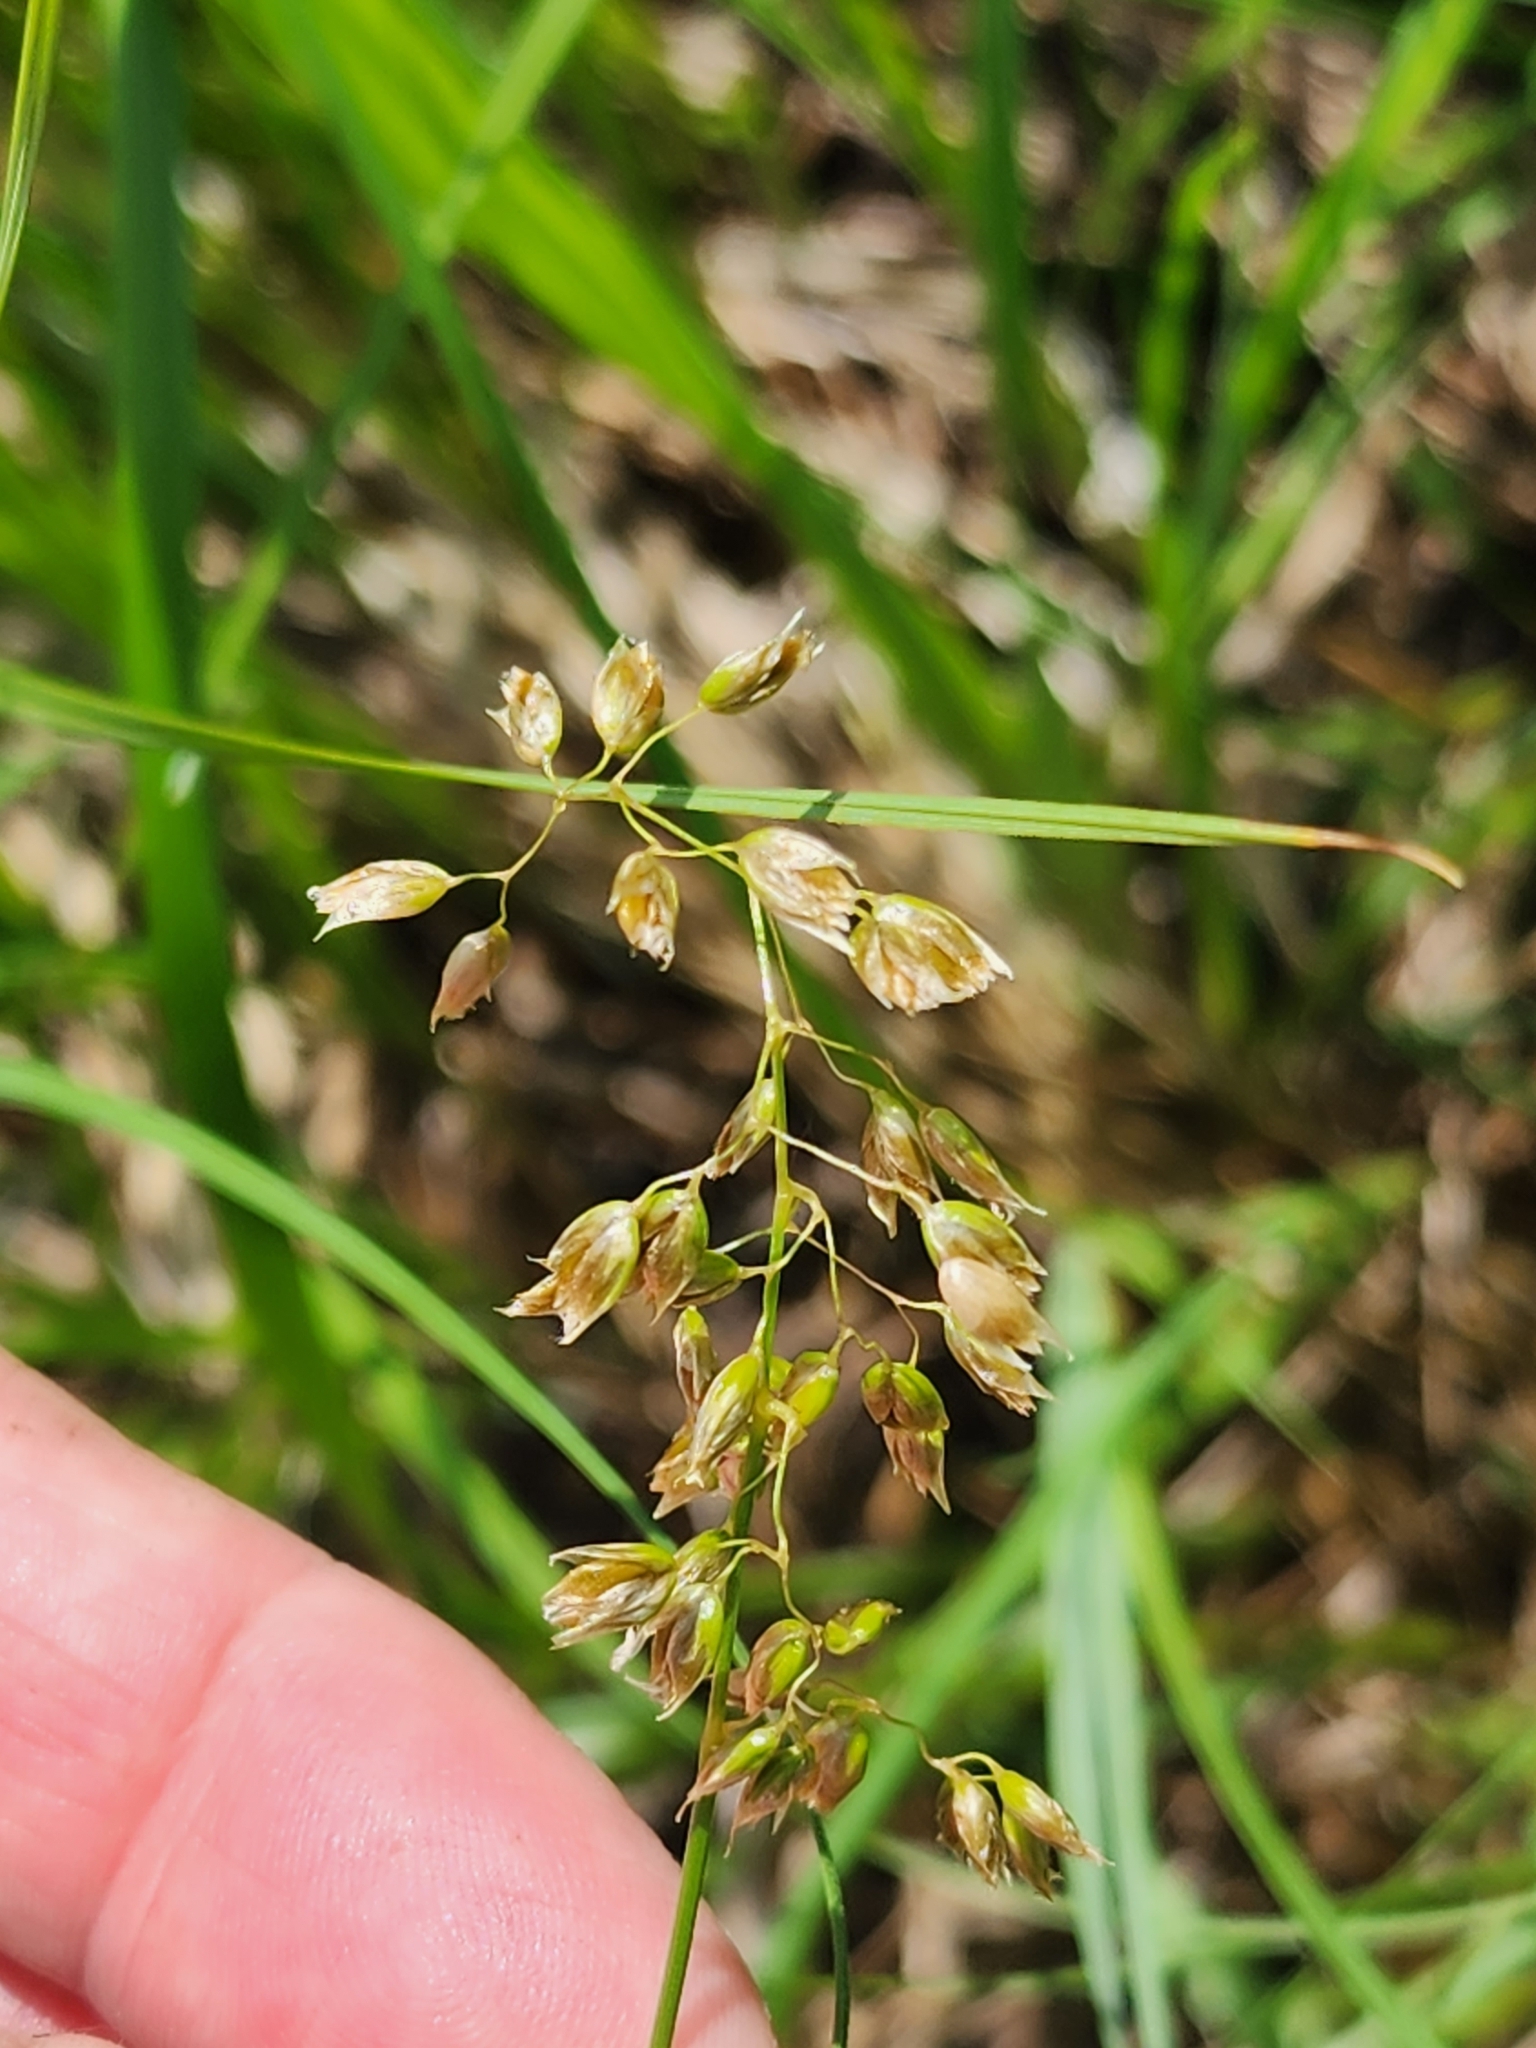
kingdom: Plantae
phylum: Tracheophyta
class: Liliopsida
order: Poales
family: Poaceae
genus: Anthoxanthum
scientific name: Anthoxanthum nitens
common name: Holy grass
